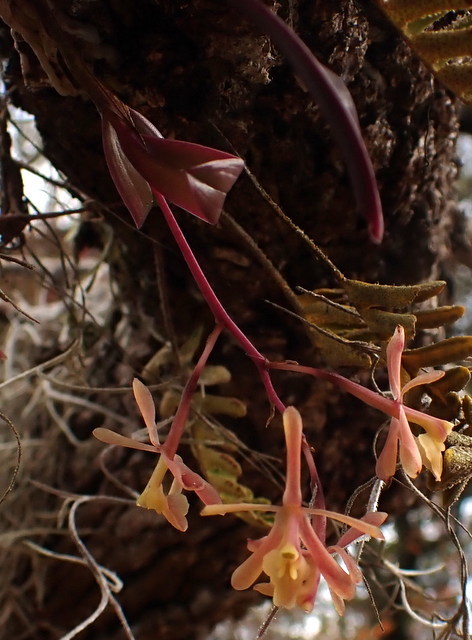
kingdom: Plantae
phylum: Tracheophyta
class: Liliopsida
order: Asparagales
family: Orchidaceae
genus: Epidendrum
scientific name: Epidendrum conopseum
